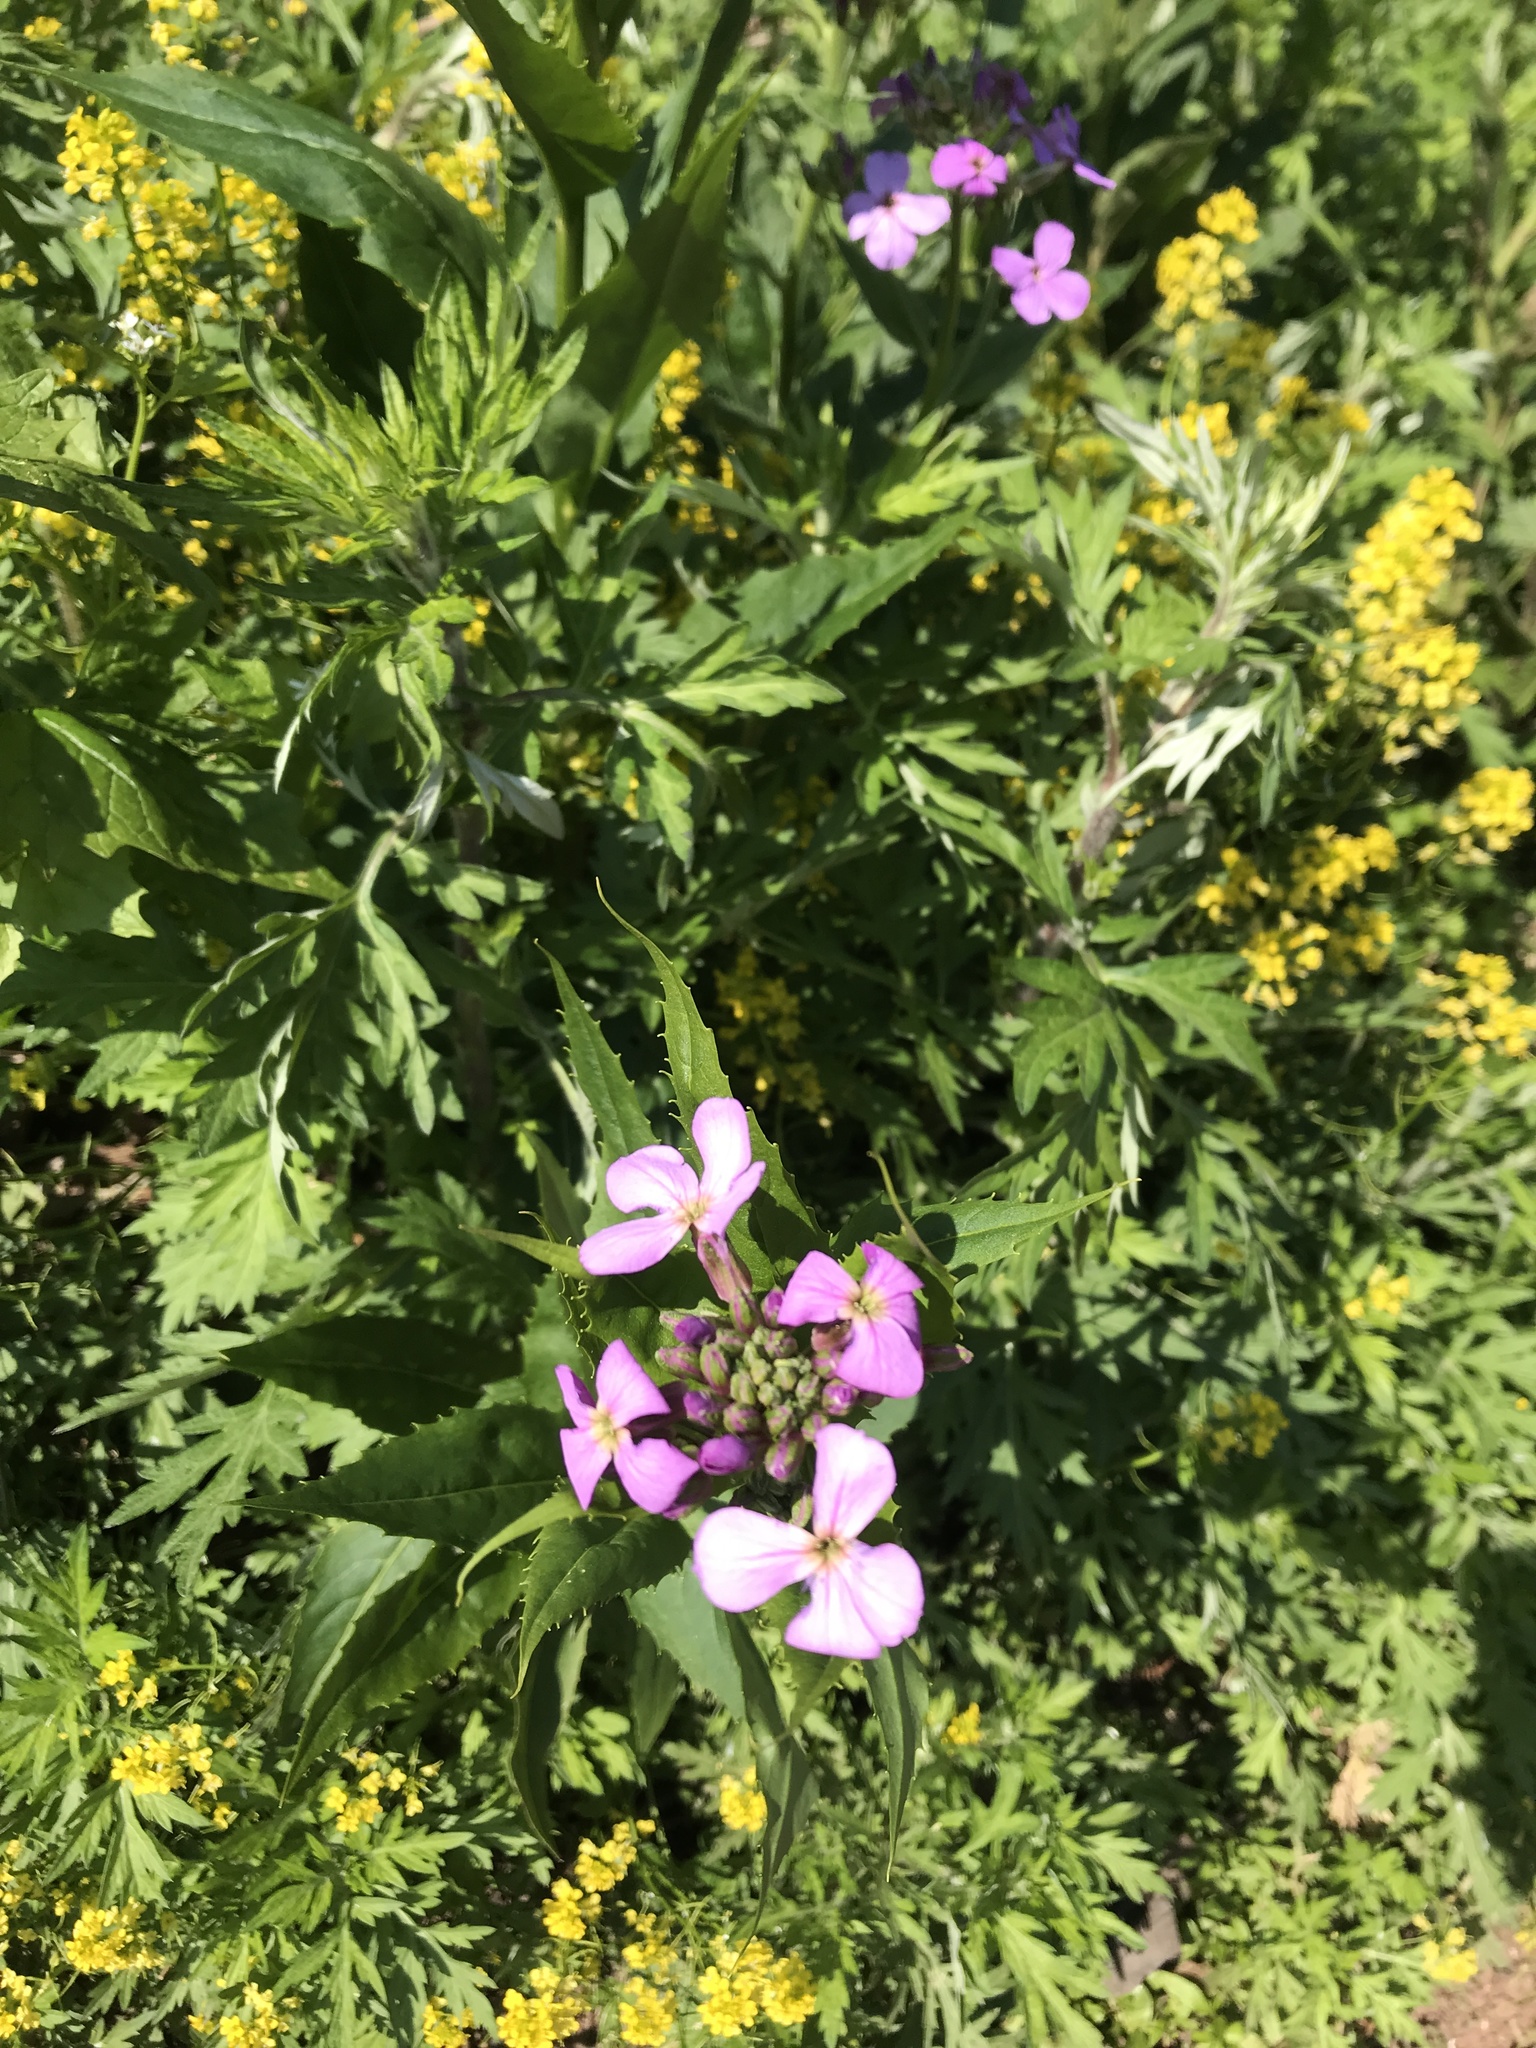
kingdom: Plantae
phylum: Tracheophyta
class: Magnoliopsida
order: Brassicales
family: Brassicaceae
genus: Hesperis
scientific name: Hesperis matronalis
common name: Dame's-violet
